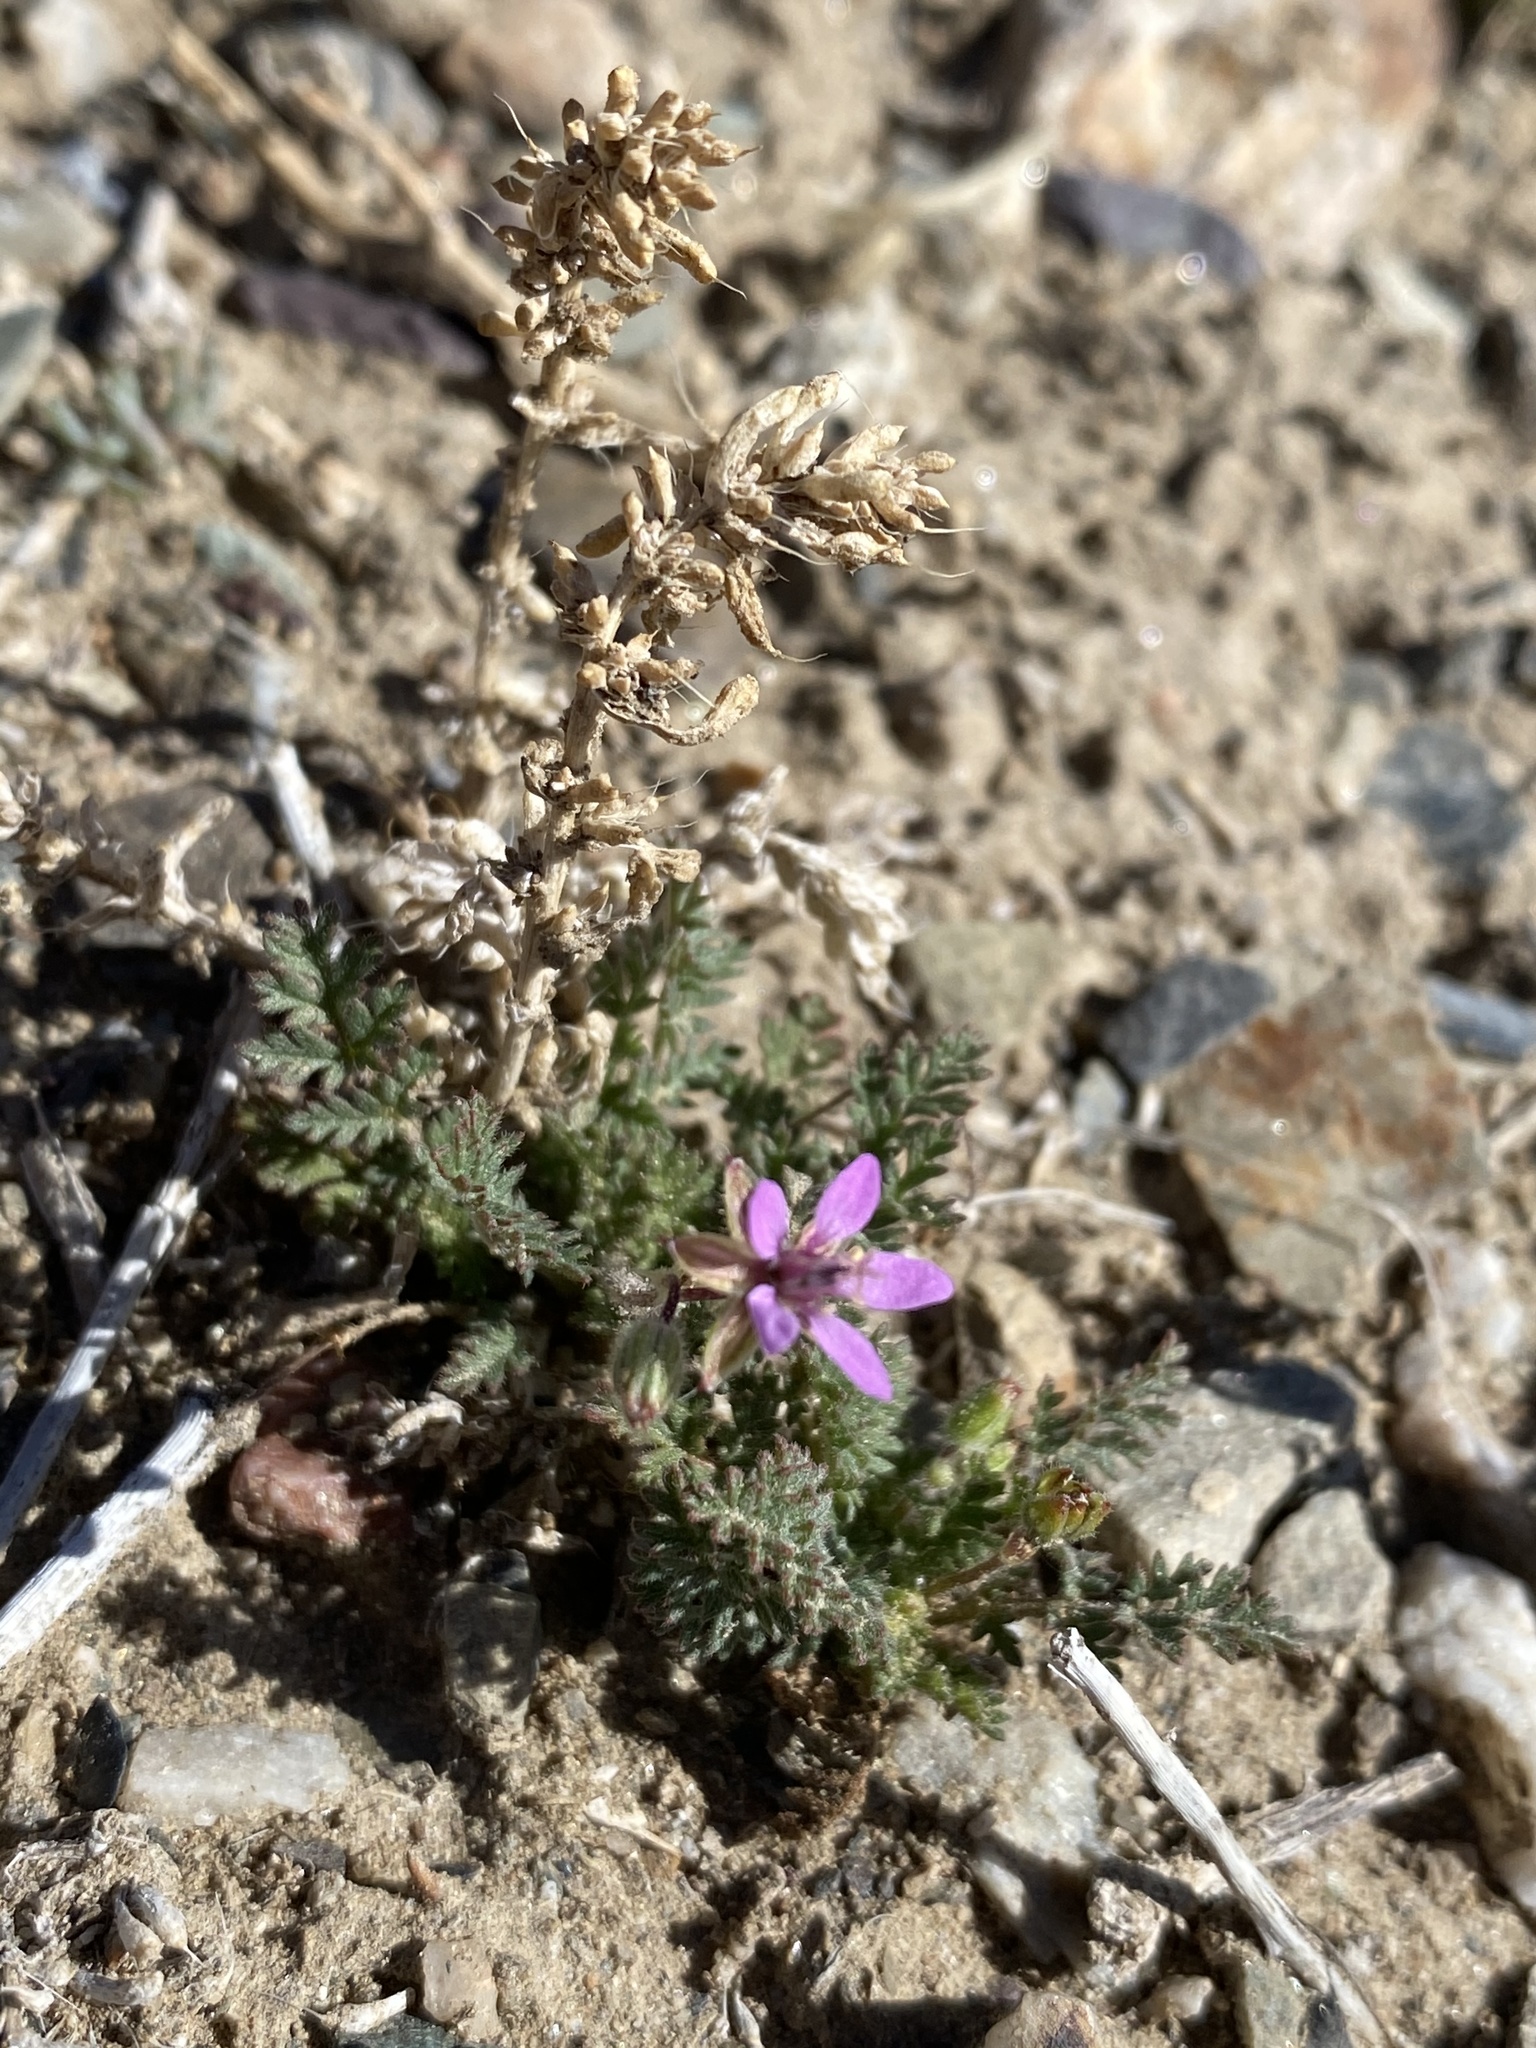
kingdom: Plantae
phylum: Tracheophyta
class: Magnoliopsida
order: Geraniales
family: Geraniaceae
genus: Erodium
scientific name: Erodium cicutarium
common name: Common stork's-bill
